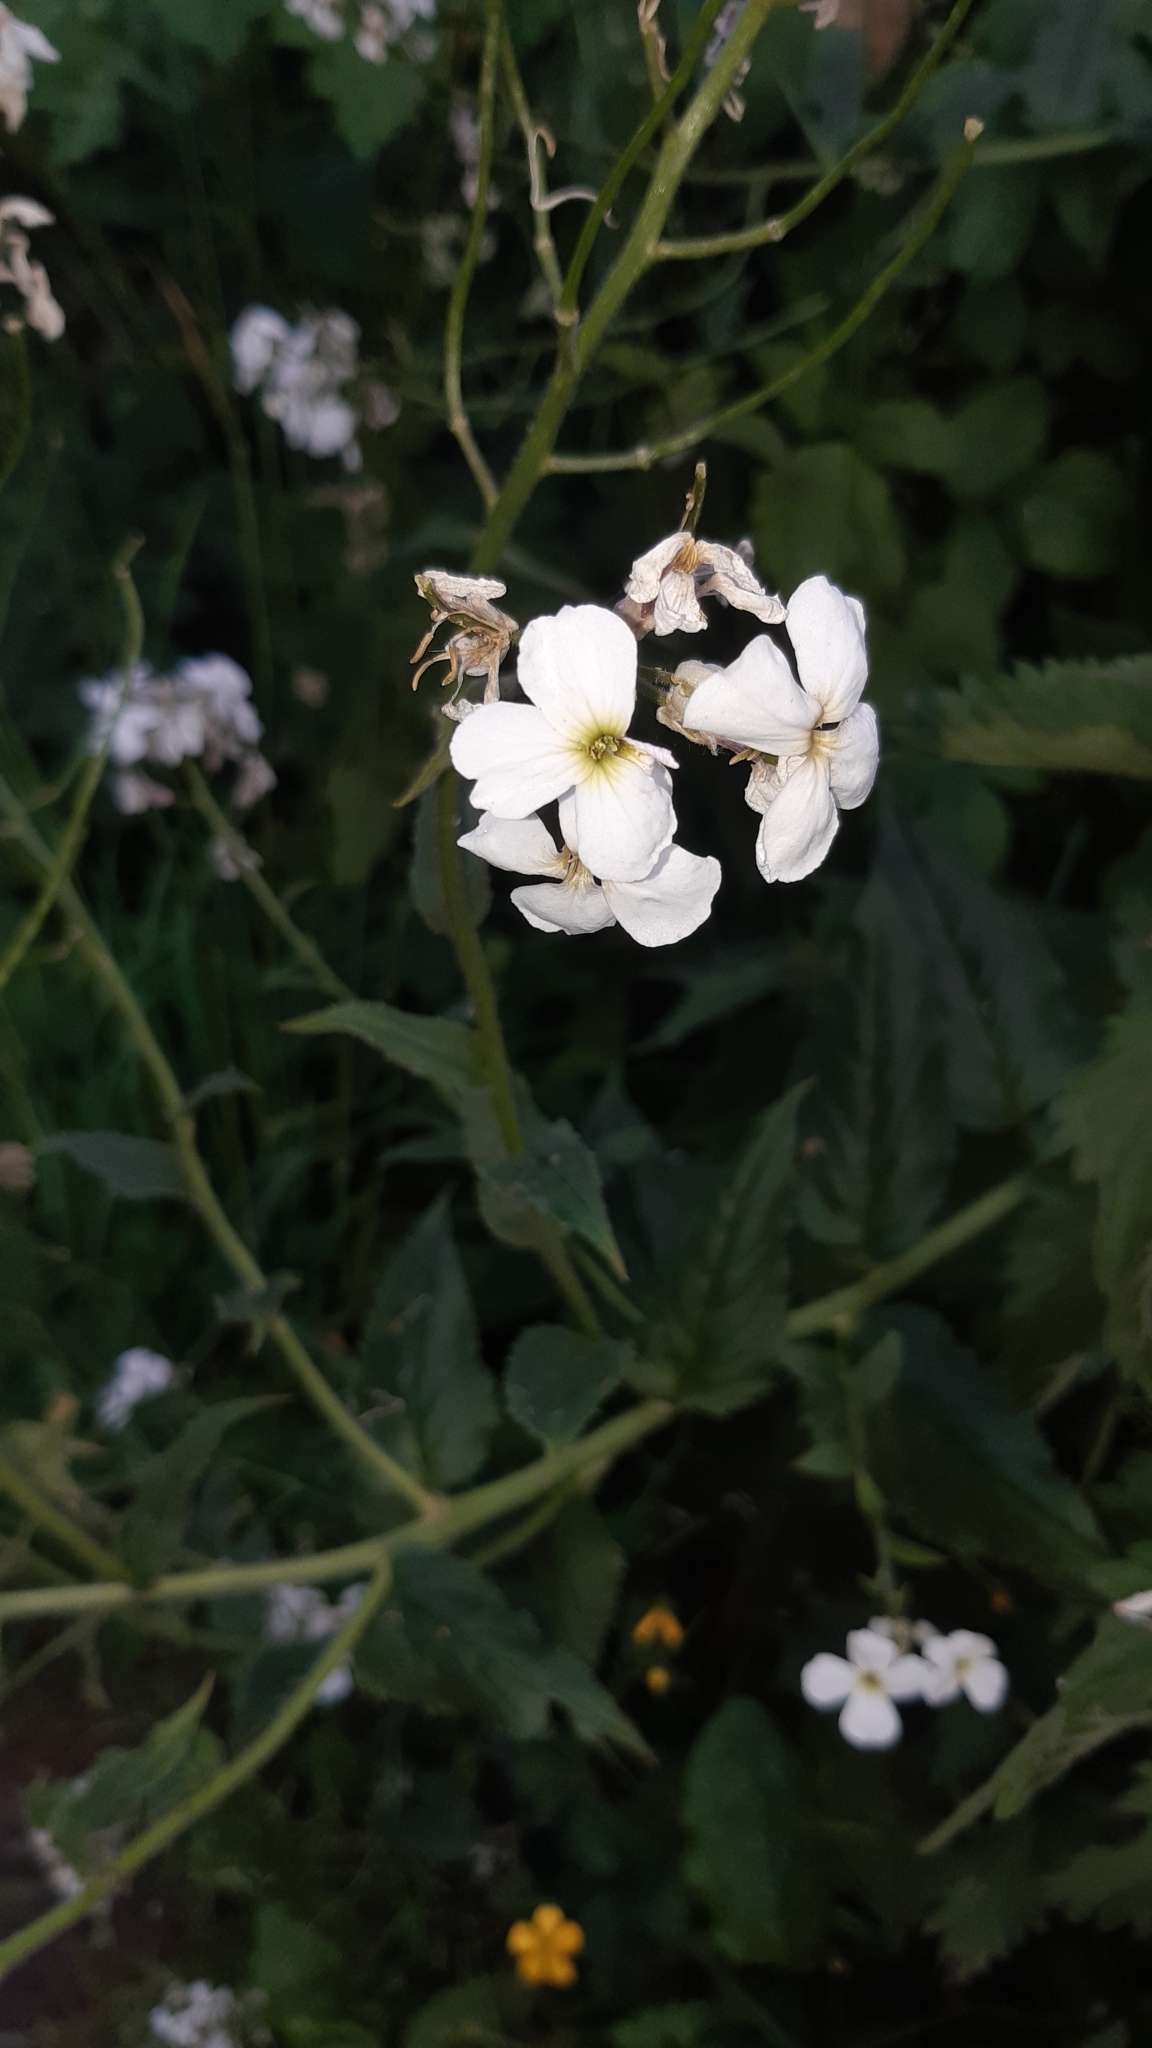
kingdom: Plantae
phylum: Tracheophyta
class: Magnoliopsida
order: Brassicales
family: Brassicaceae
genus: Hesperis
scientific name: Hesperis matronalis
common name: Dame's-violet
